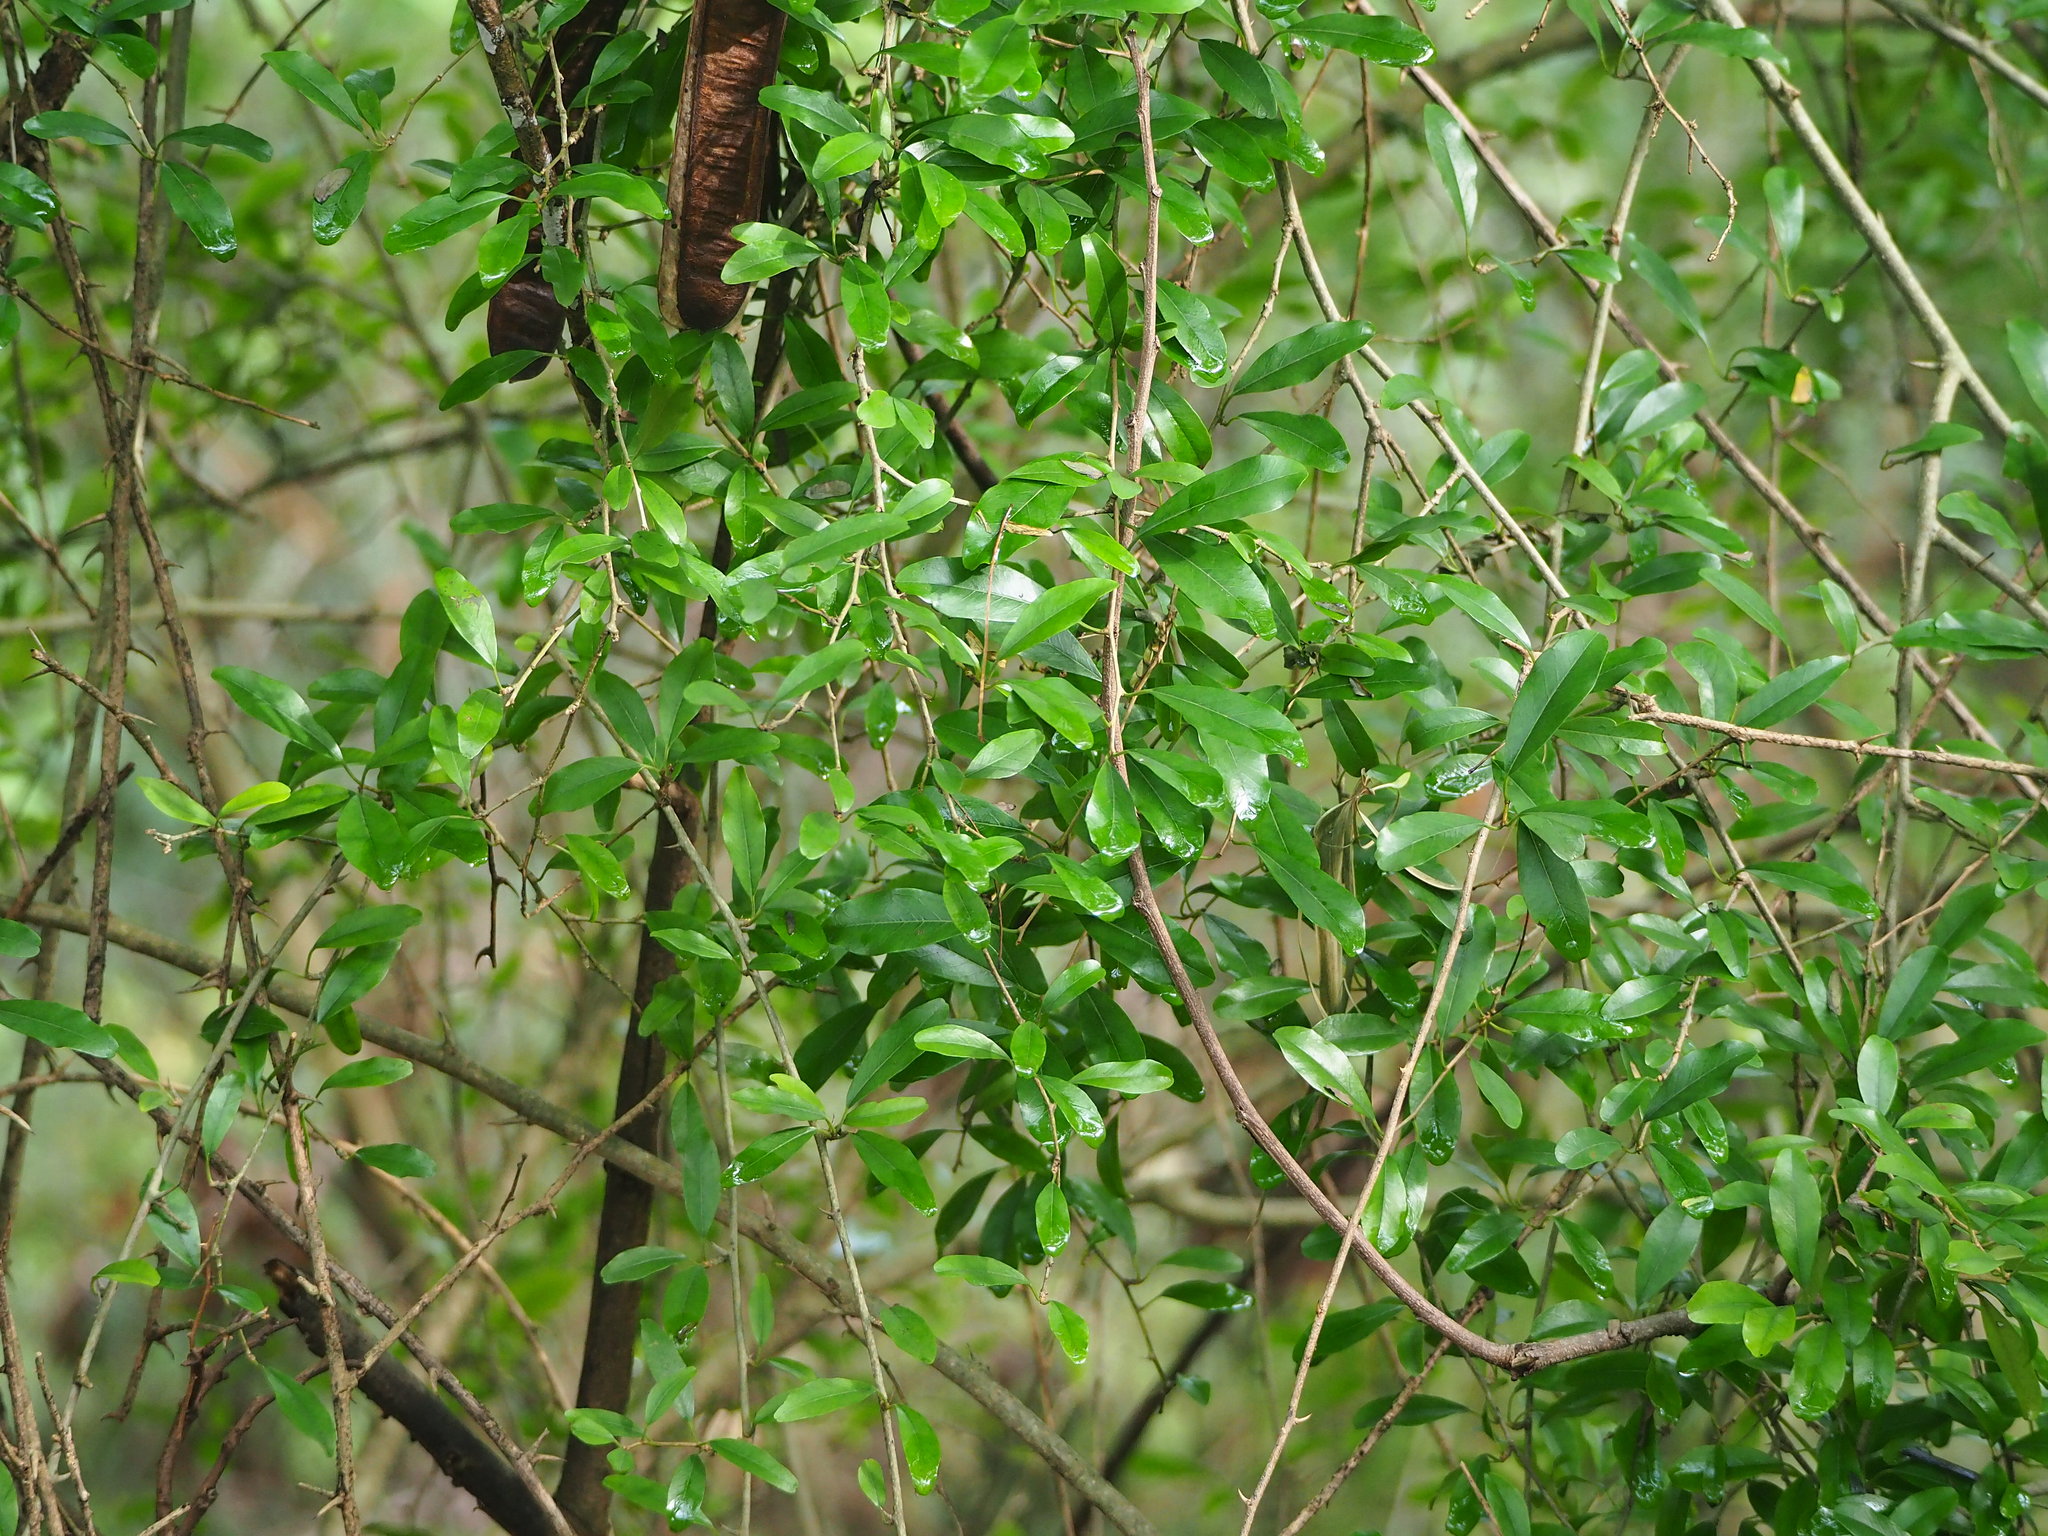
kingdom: Plantae
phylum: Tracheophyta
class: Magnoliopsida
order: Malpighiales
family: Salicaceae
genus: Scolopia
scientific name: Scolopia oldhamii
